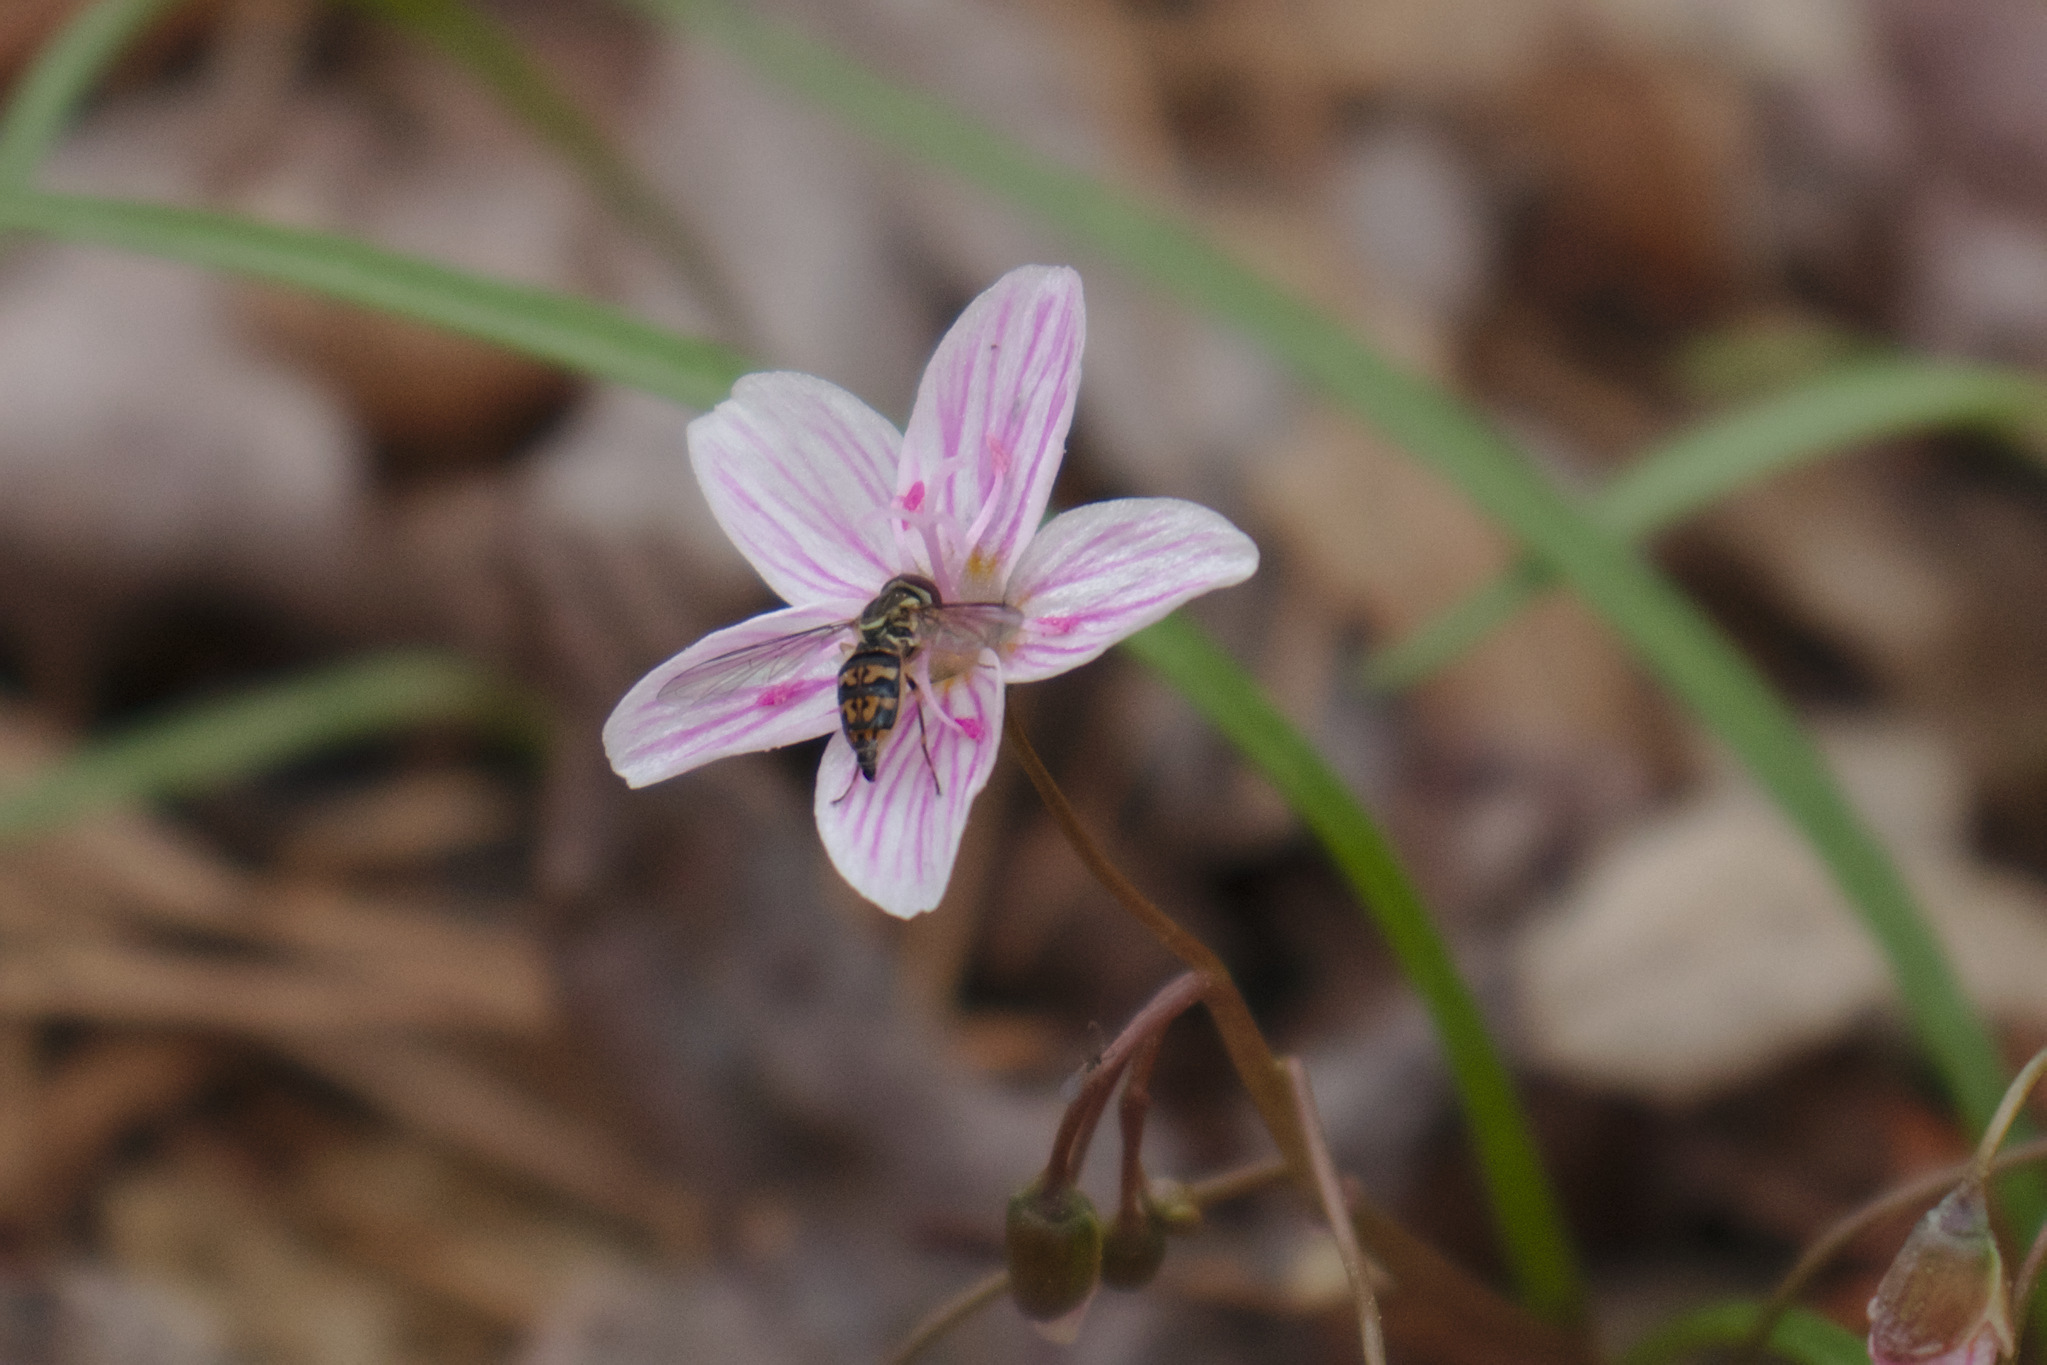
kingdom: Animalia
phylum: Arthropoda
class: Insecta
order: Diptera
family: Syrphidae
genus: Toxomerus
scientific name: Toxomerus geminatus
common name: Eastern calligrapher
